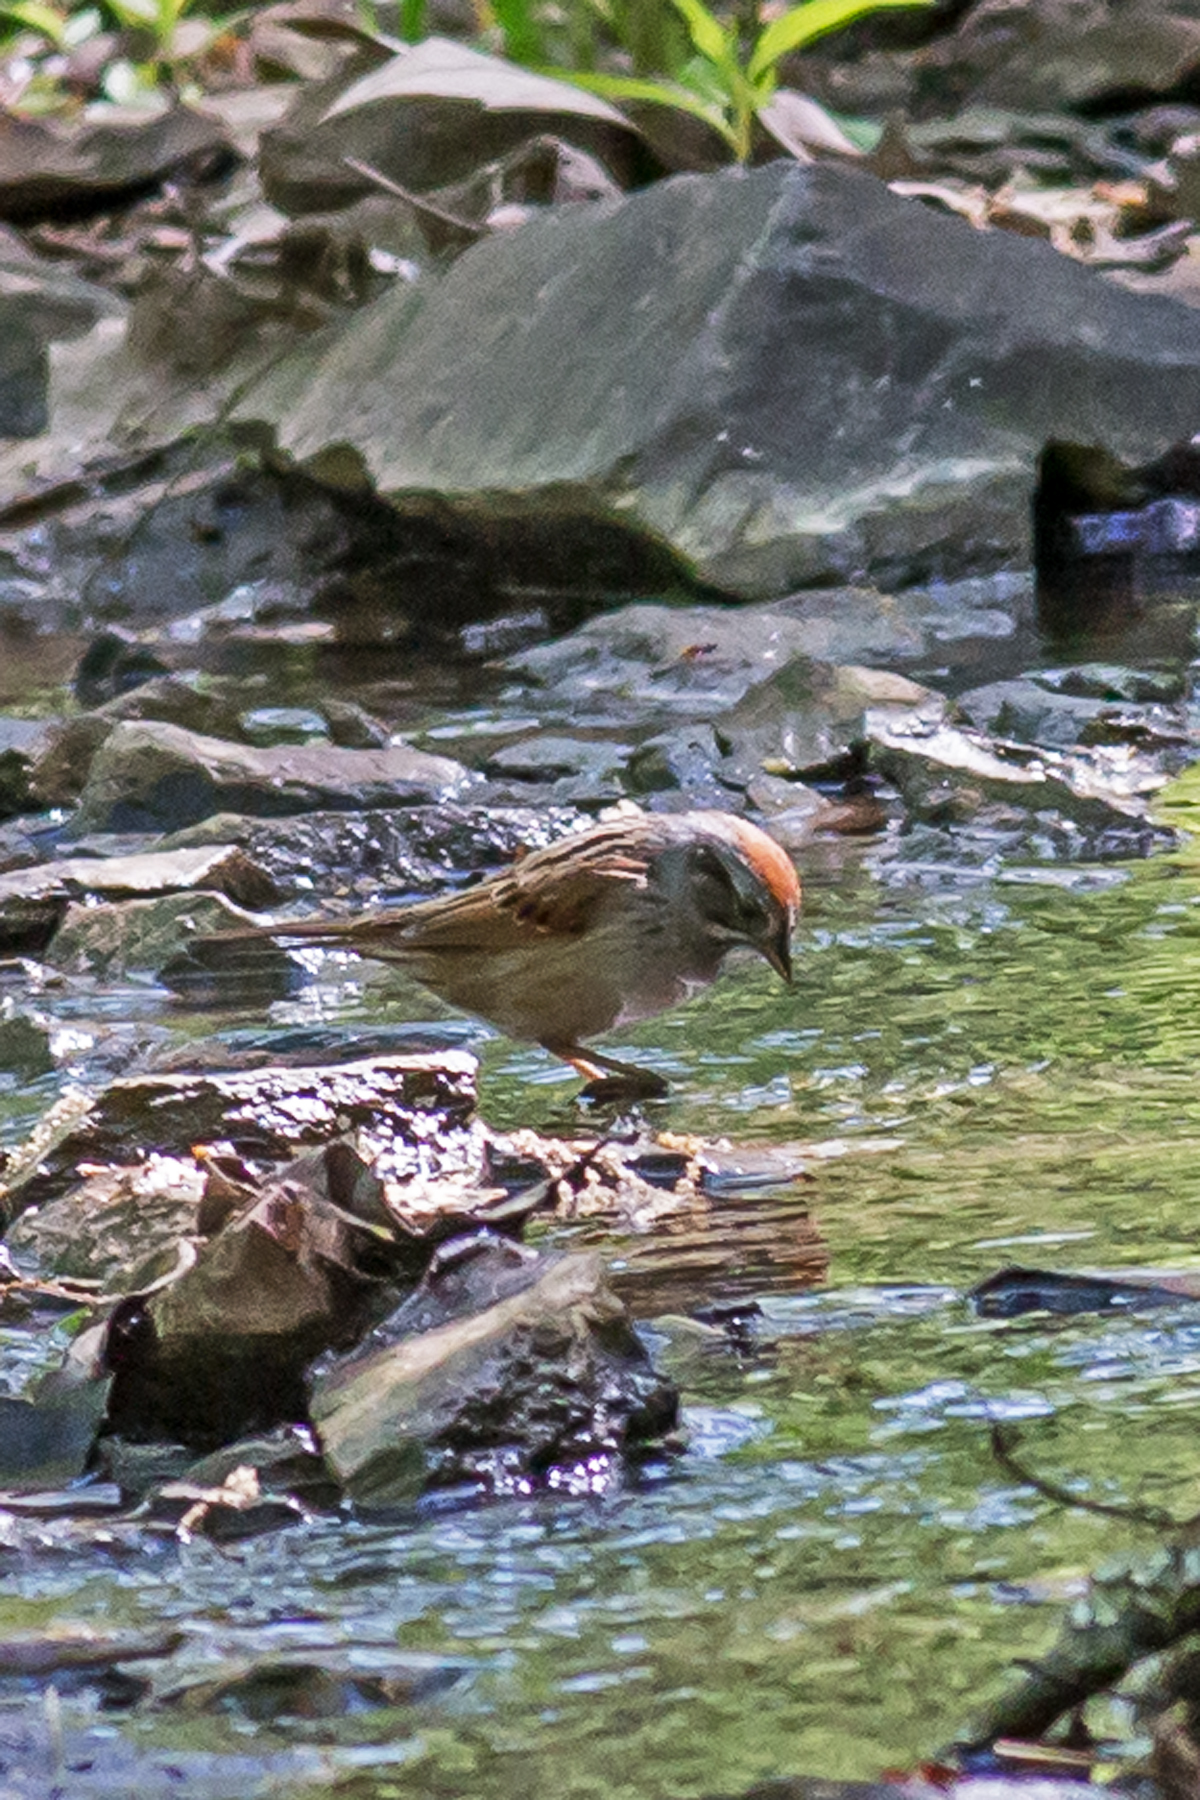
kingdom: Animalia
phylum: Chordata
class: Aves
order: Passeriformes
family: Passerellidae
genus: Melospiza
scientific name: Melospiza georgiana
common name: Swamp sparrow
